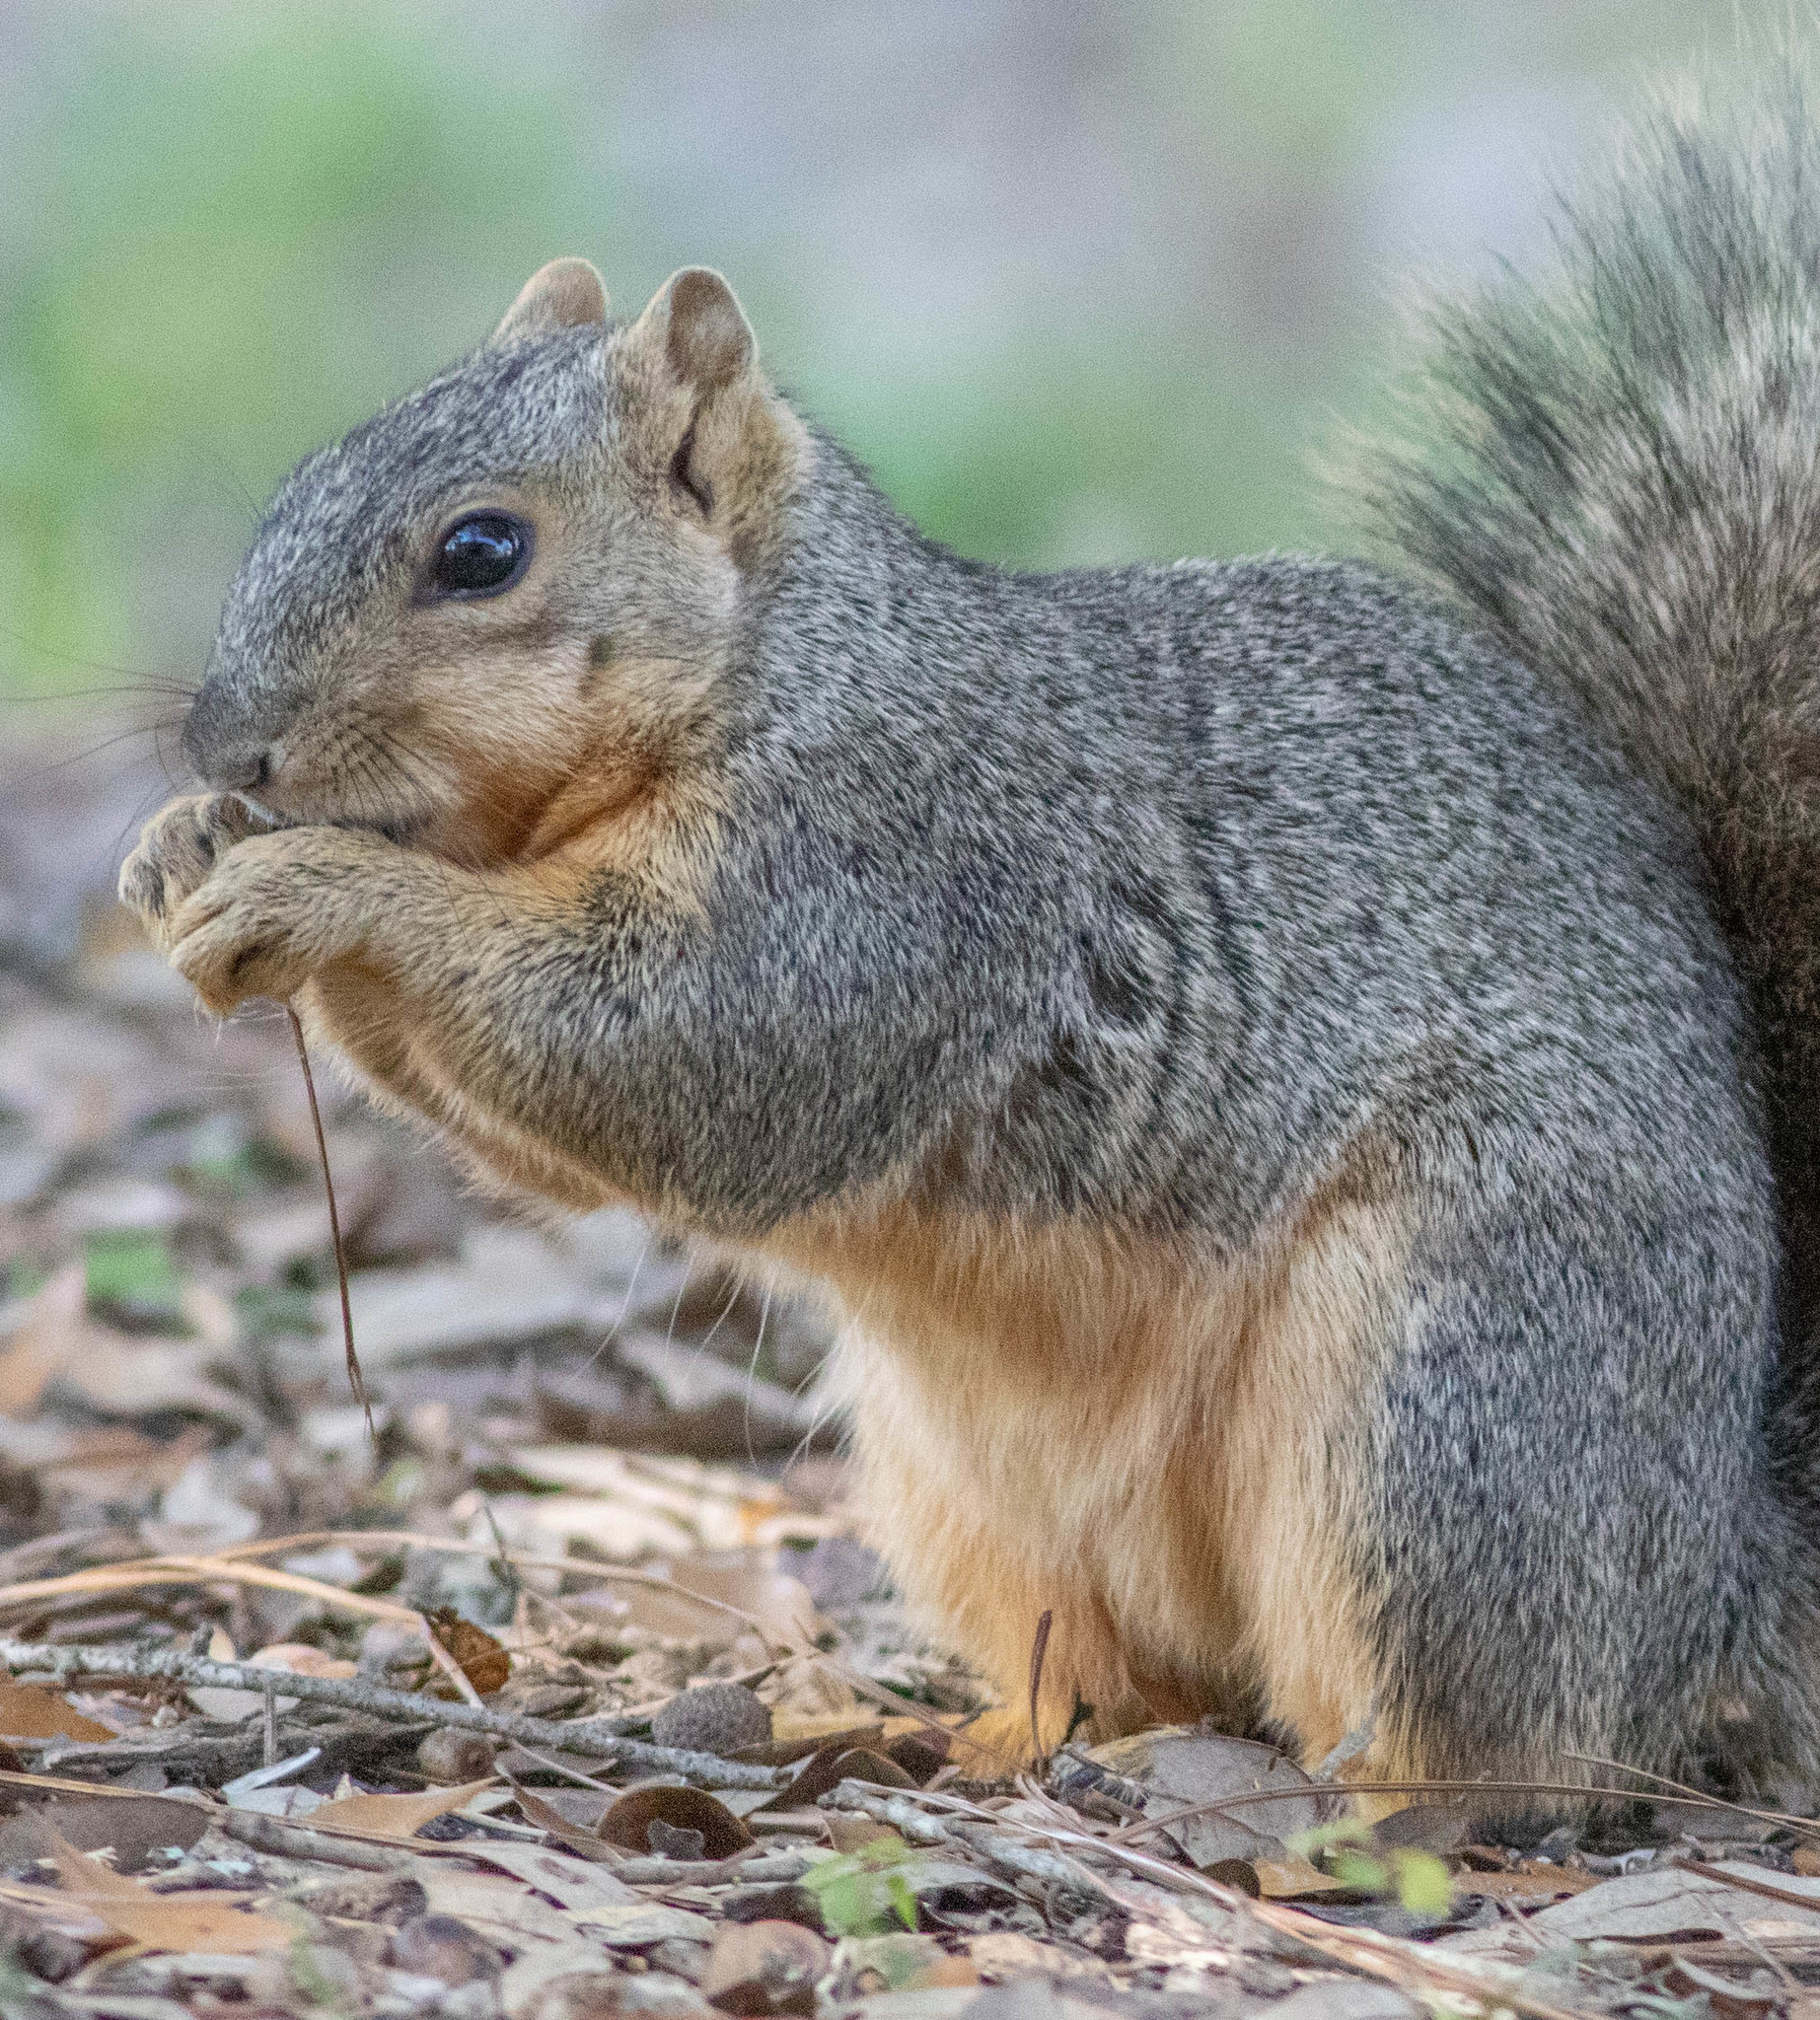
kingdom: Animalia
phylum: Chordata
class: Mammalia
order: Rodentia
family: Sciuridae
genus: Sciurus
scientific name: Sciurus niger
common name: Fox squirrel
